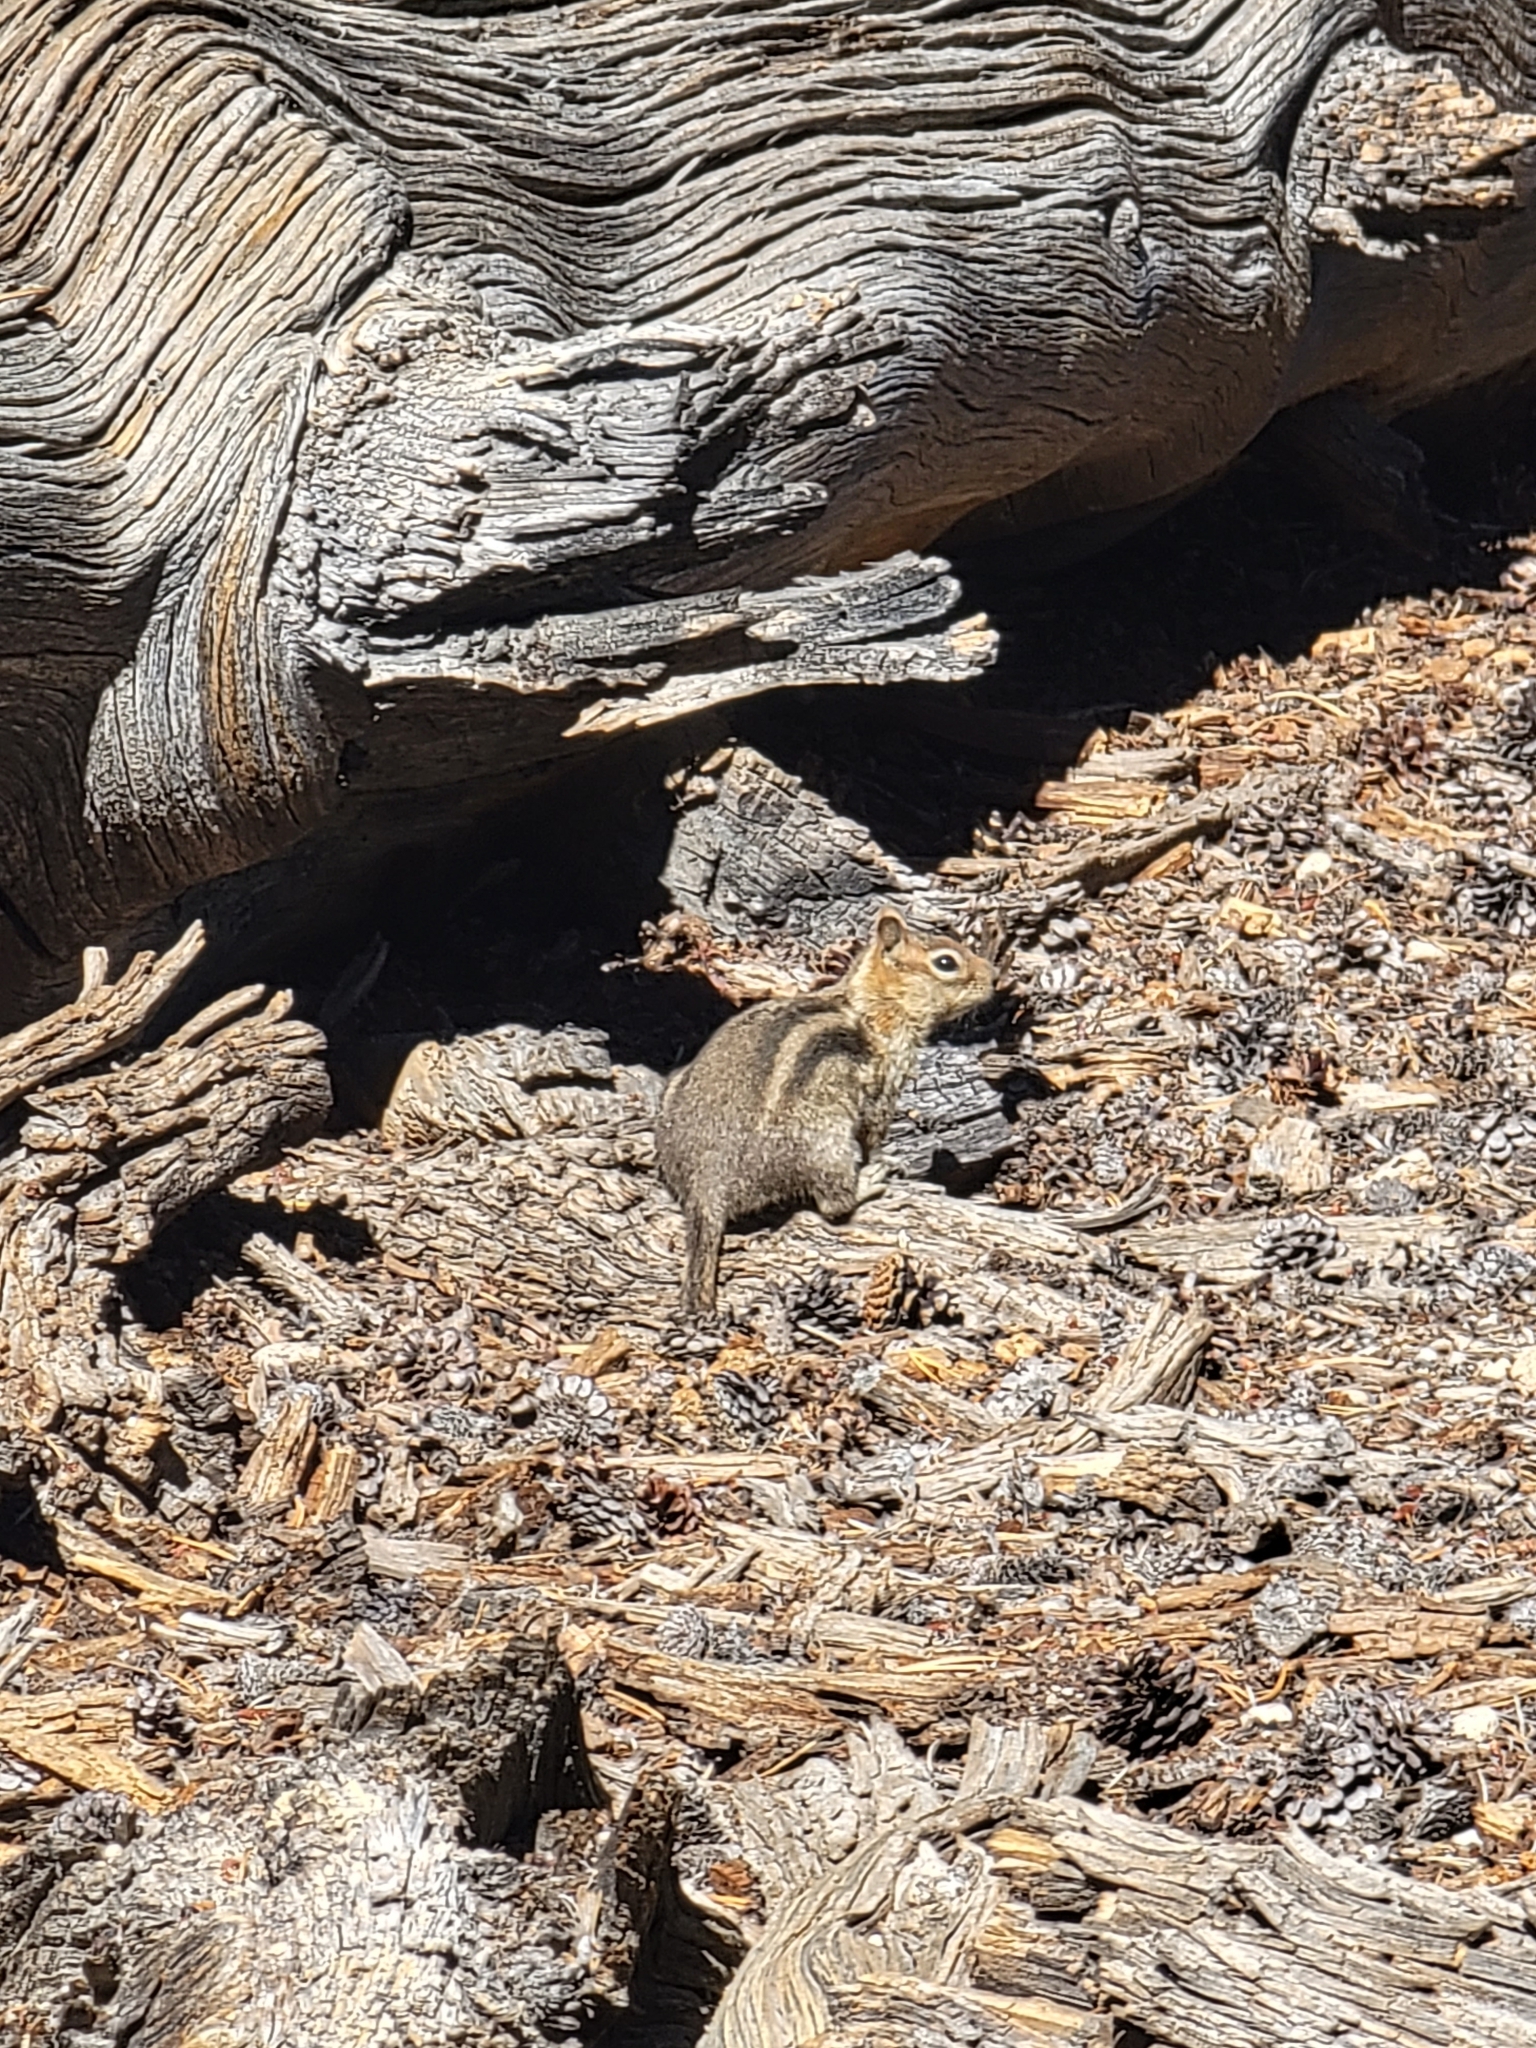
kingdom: Animalia
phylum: Chordata
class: Mammalia
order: Rodentia
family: Sciuridae
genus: Callospermophilus
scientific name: Callospermophilus lateralis
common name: Golden-mantled ground squirrel
